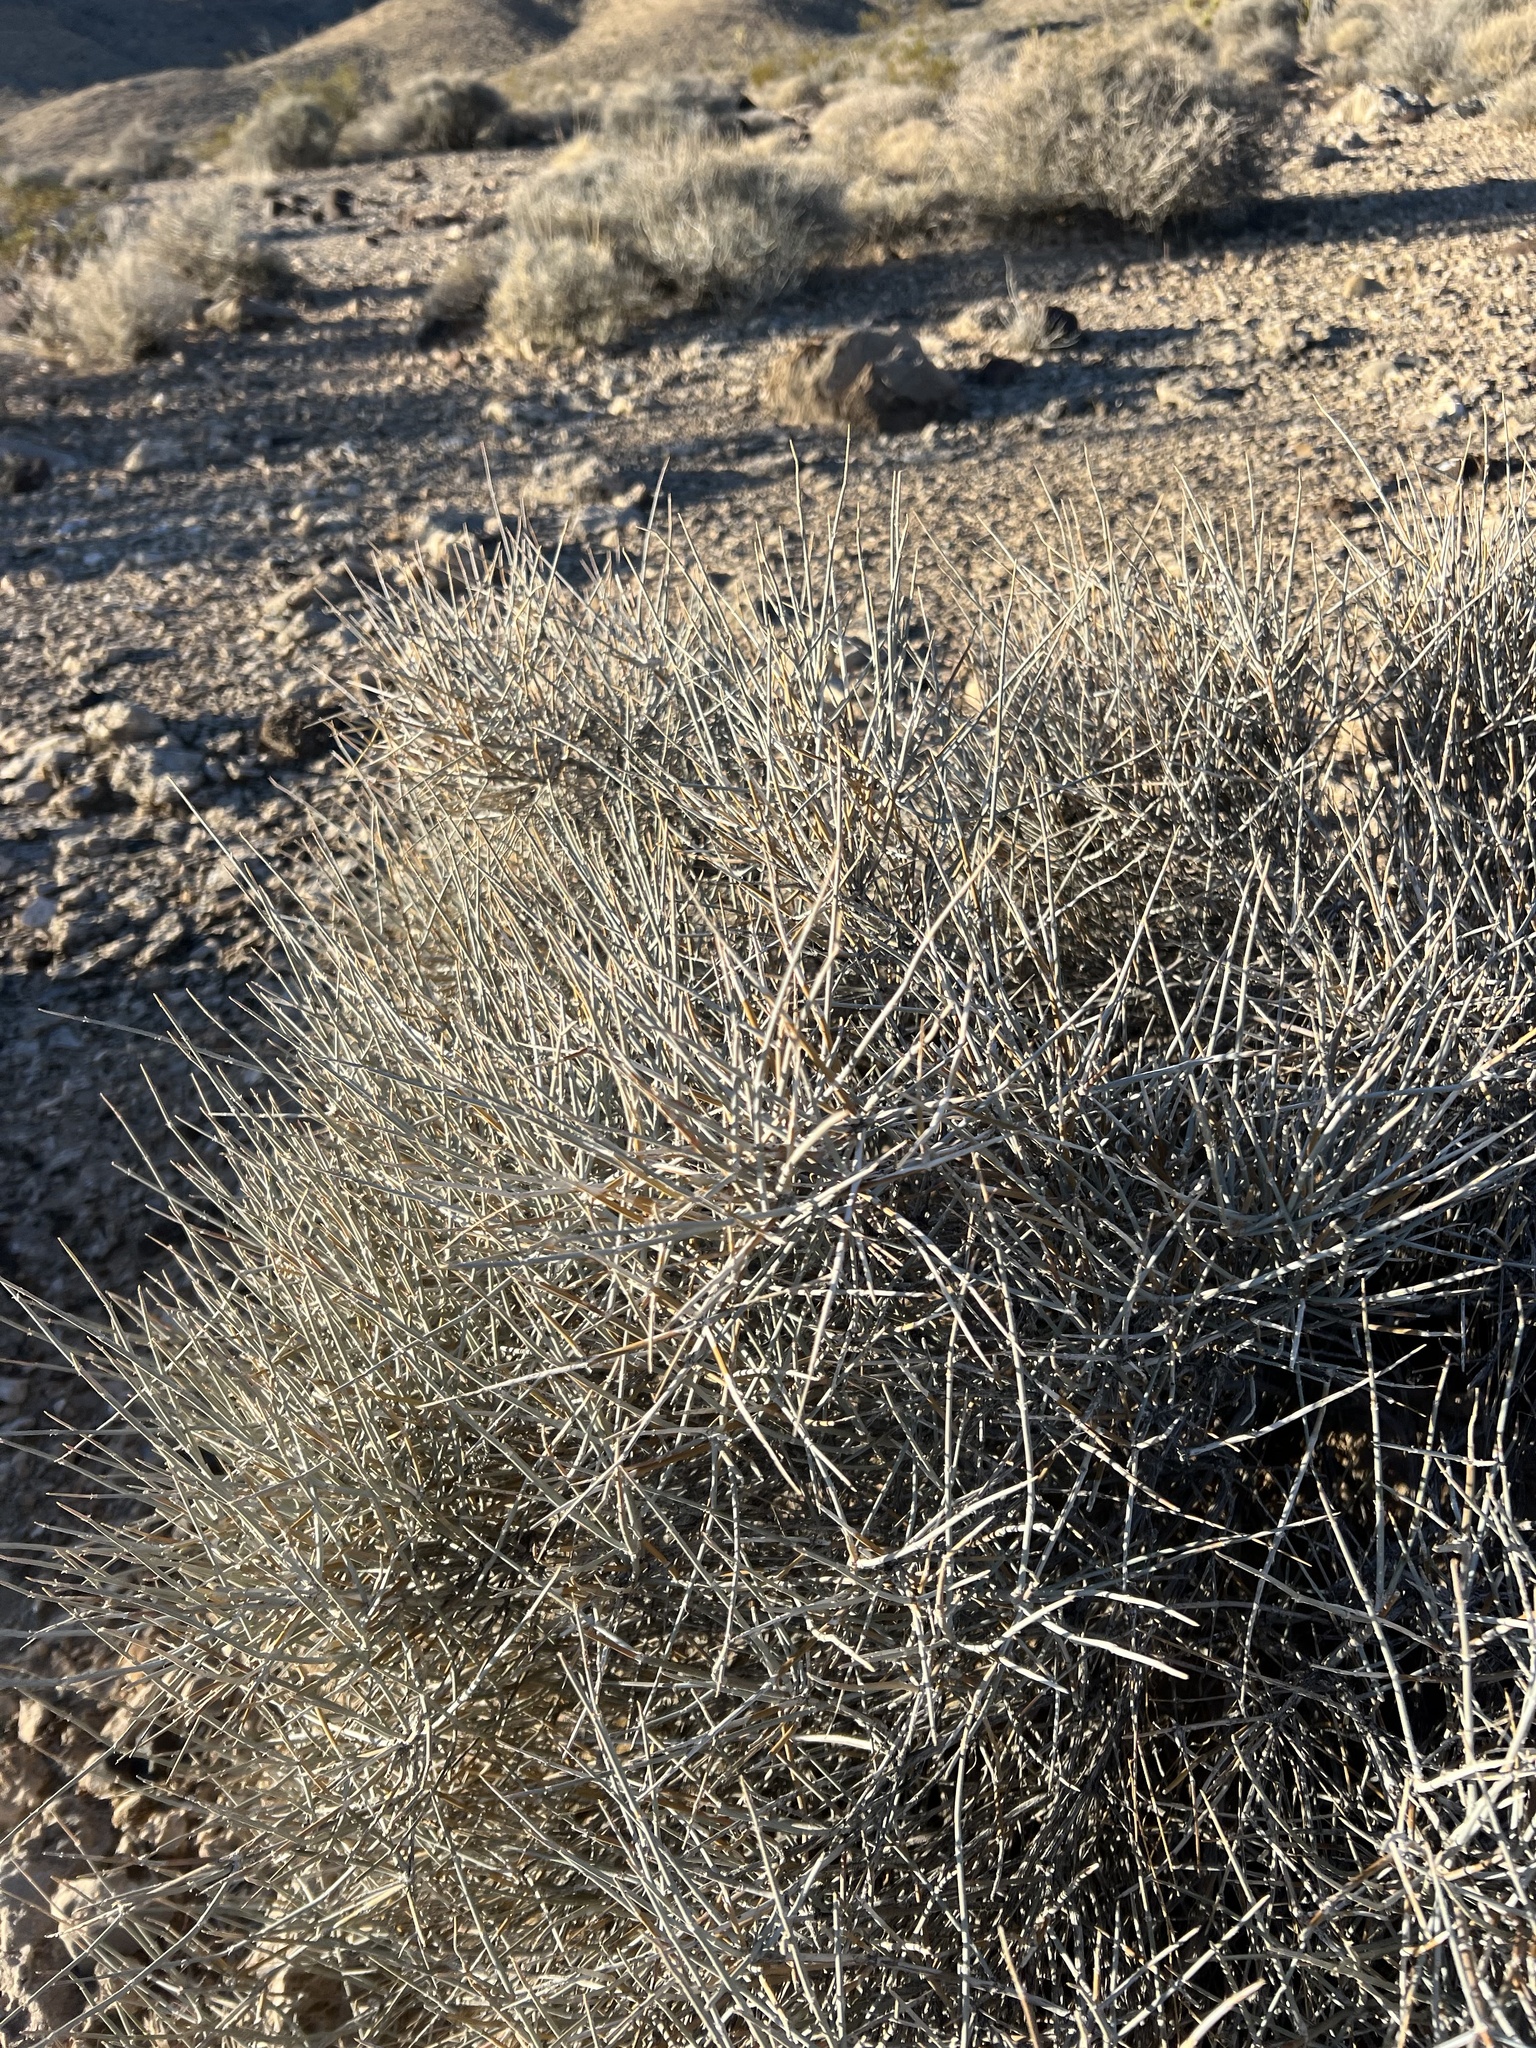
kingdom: Plantae
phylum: Tracheophyta
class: Gnetopsida
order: Ephedrales
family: Ephedraceae
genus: Ephedra
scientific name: Ephedra nevadensis
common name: Gray ephedra
